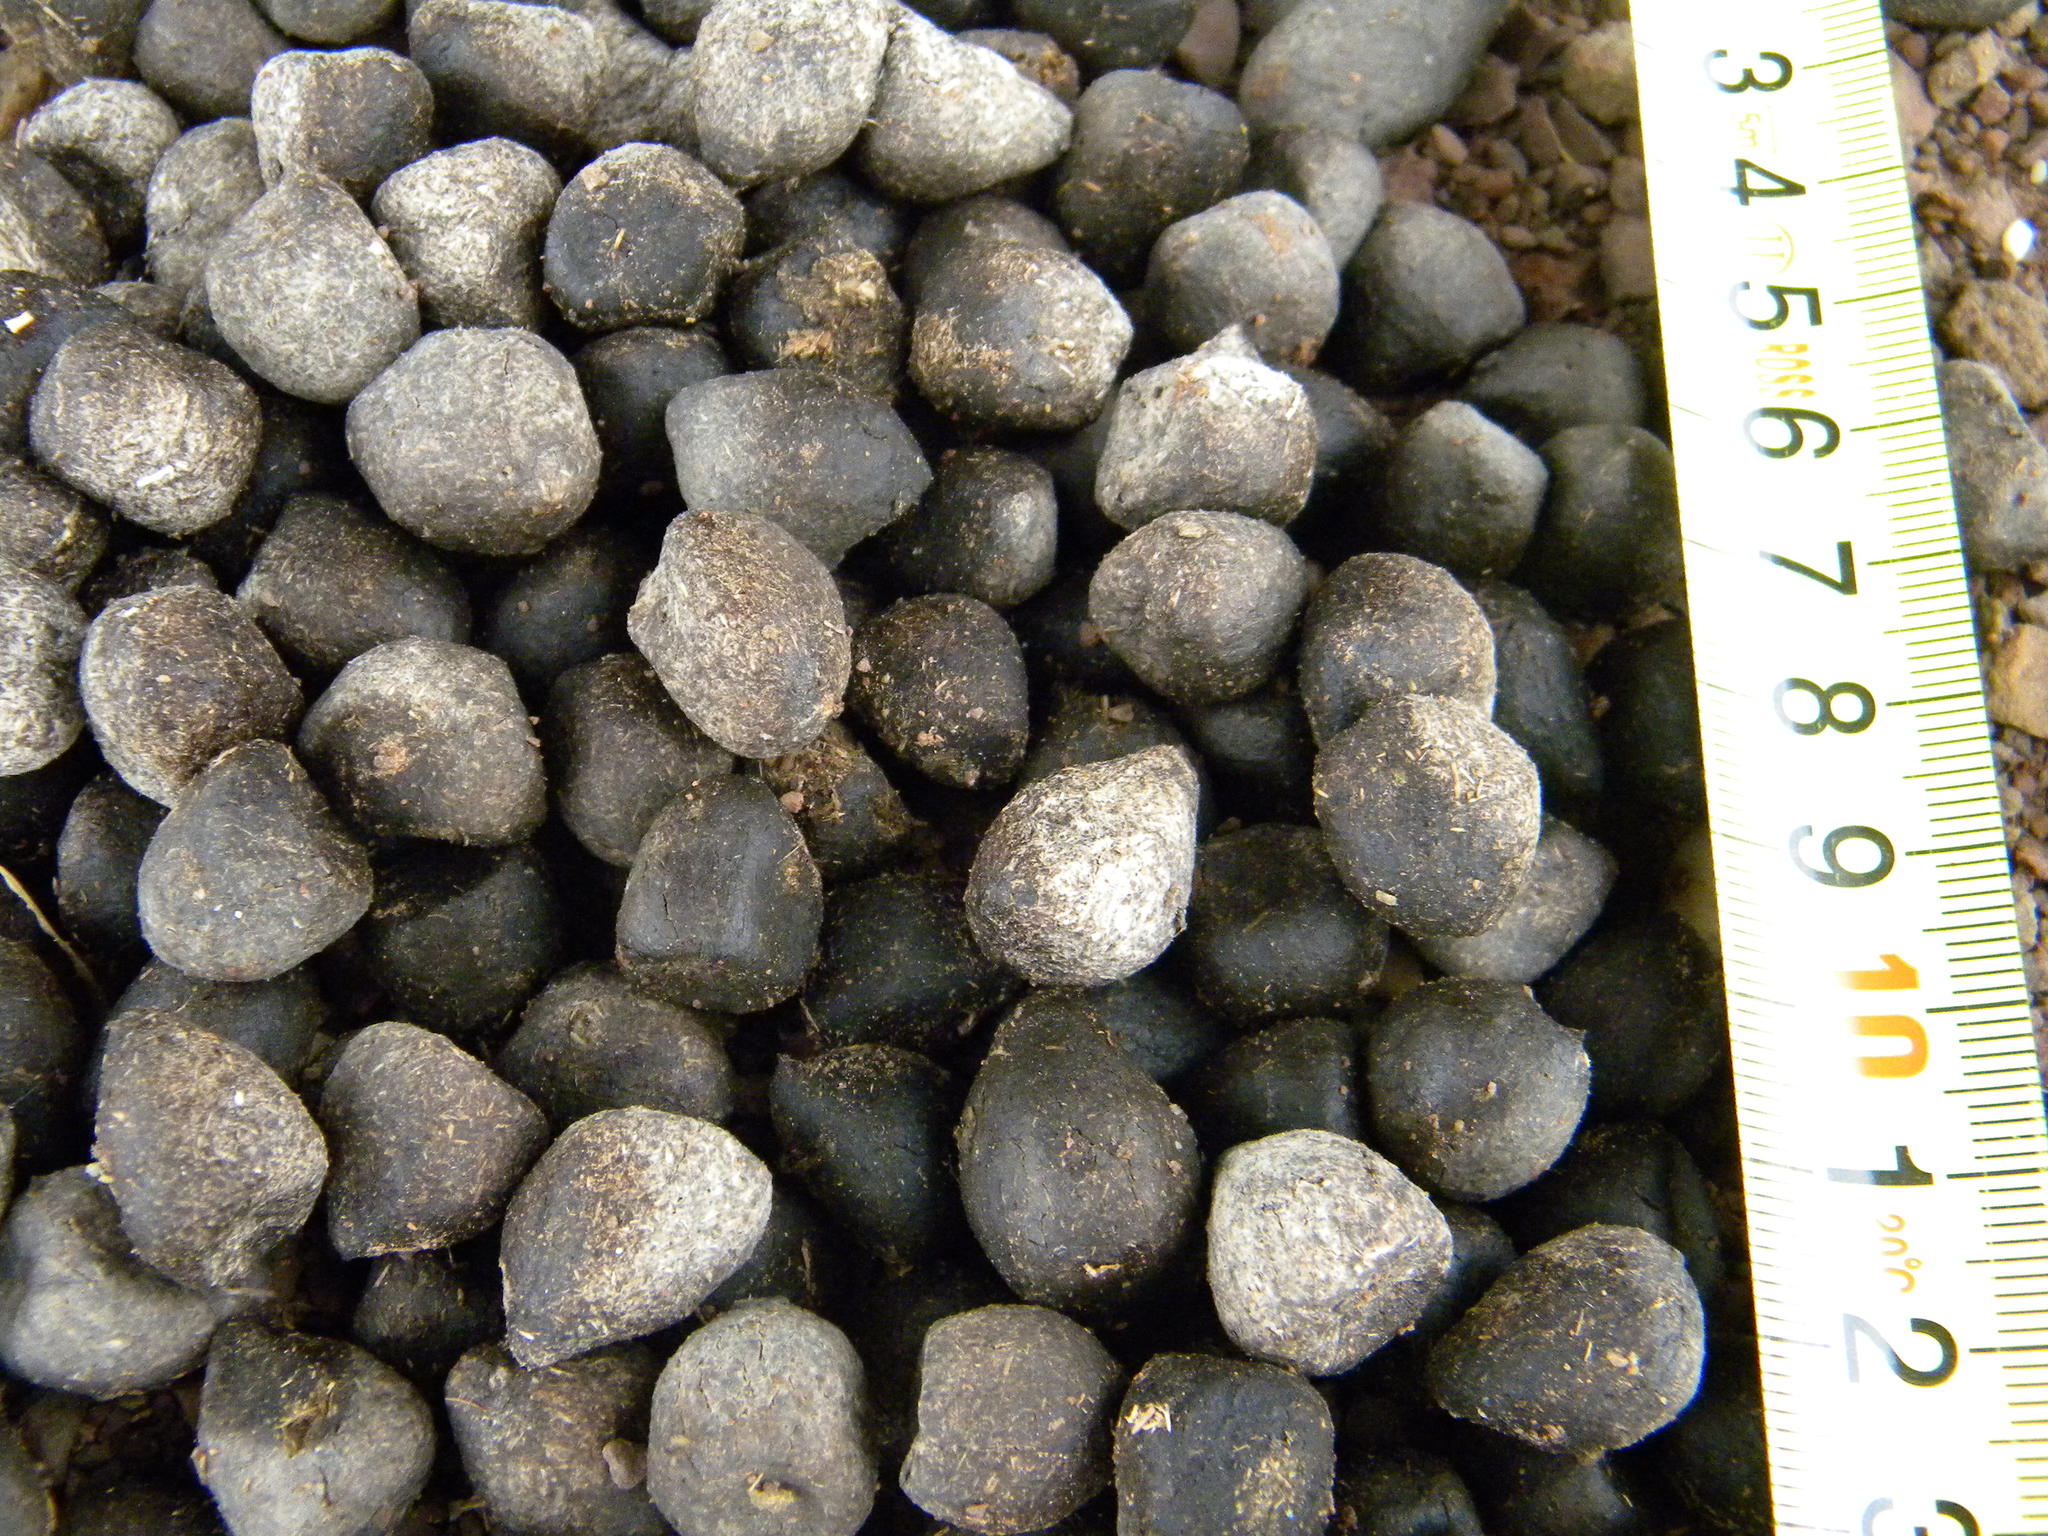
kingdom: Animalia
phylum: Chordata
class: Mammalia
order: Artiodactyla
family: Bovidae
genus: Oryx
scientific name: Oryx gazella
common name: Gemsbok
